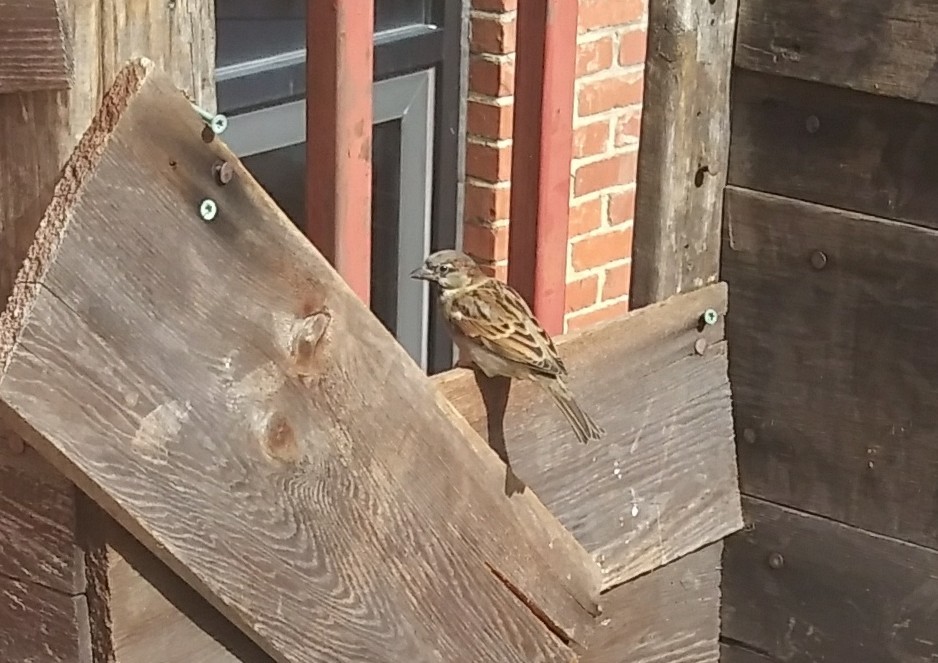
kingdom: Animalia
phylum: Chordata
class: Aves
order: Passeriformes
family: Passeridae
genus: Passer
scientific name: Passer domesticus
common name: House sparrow
